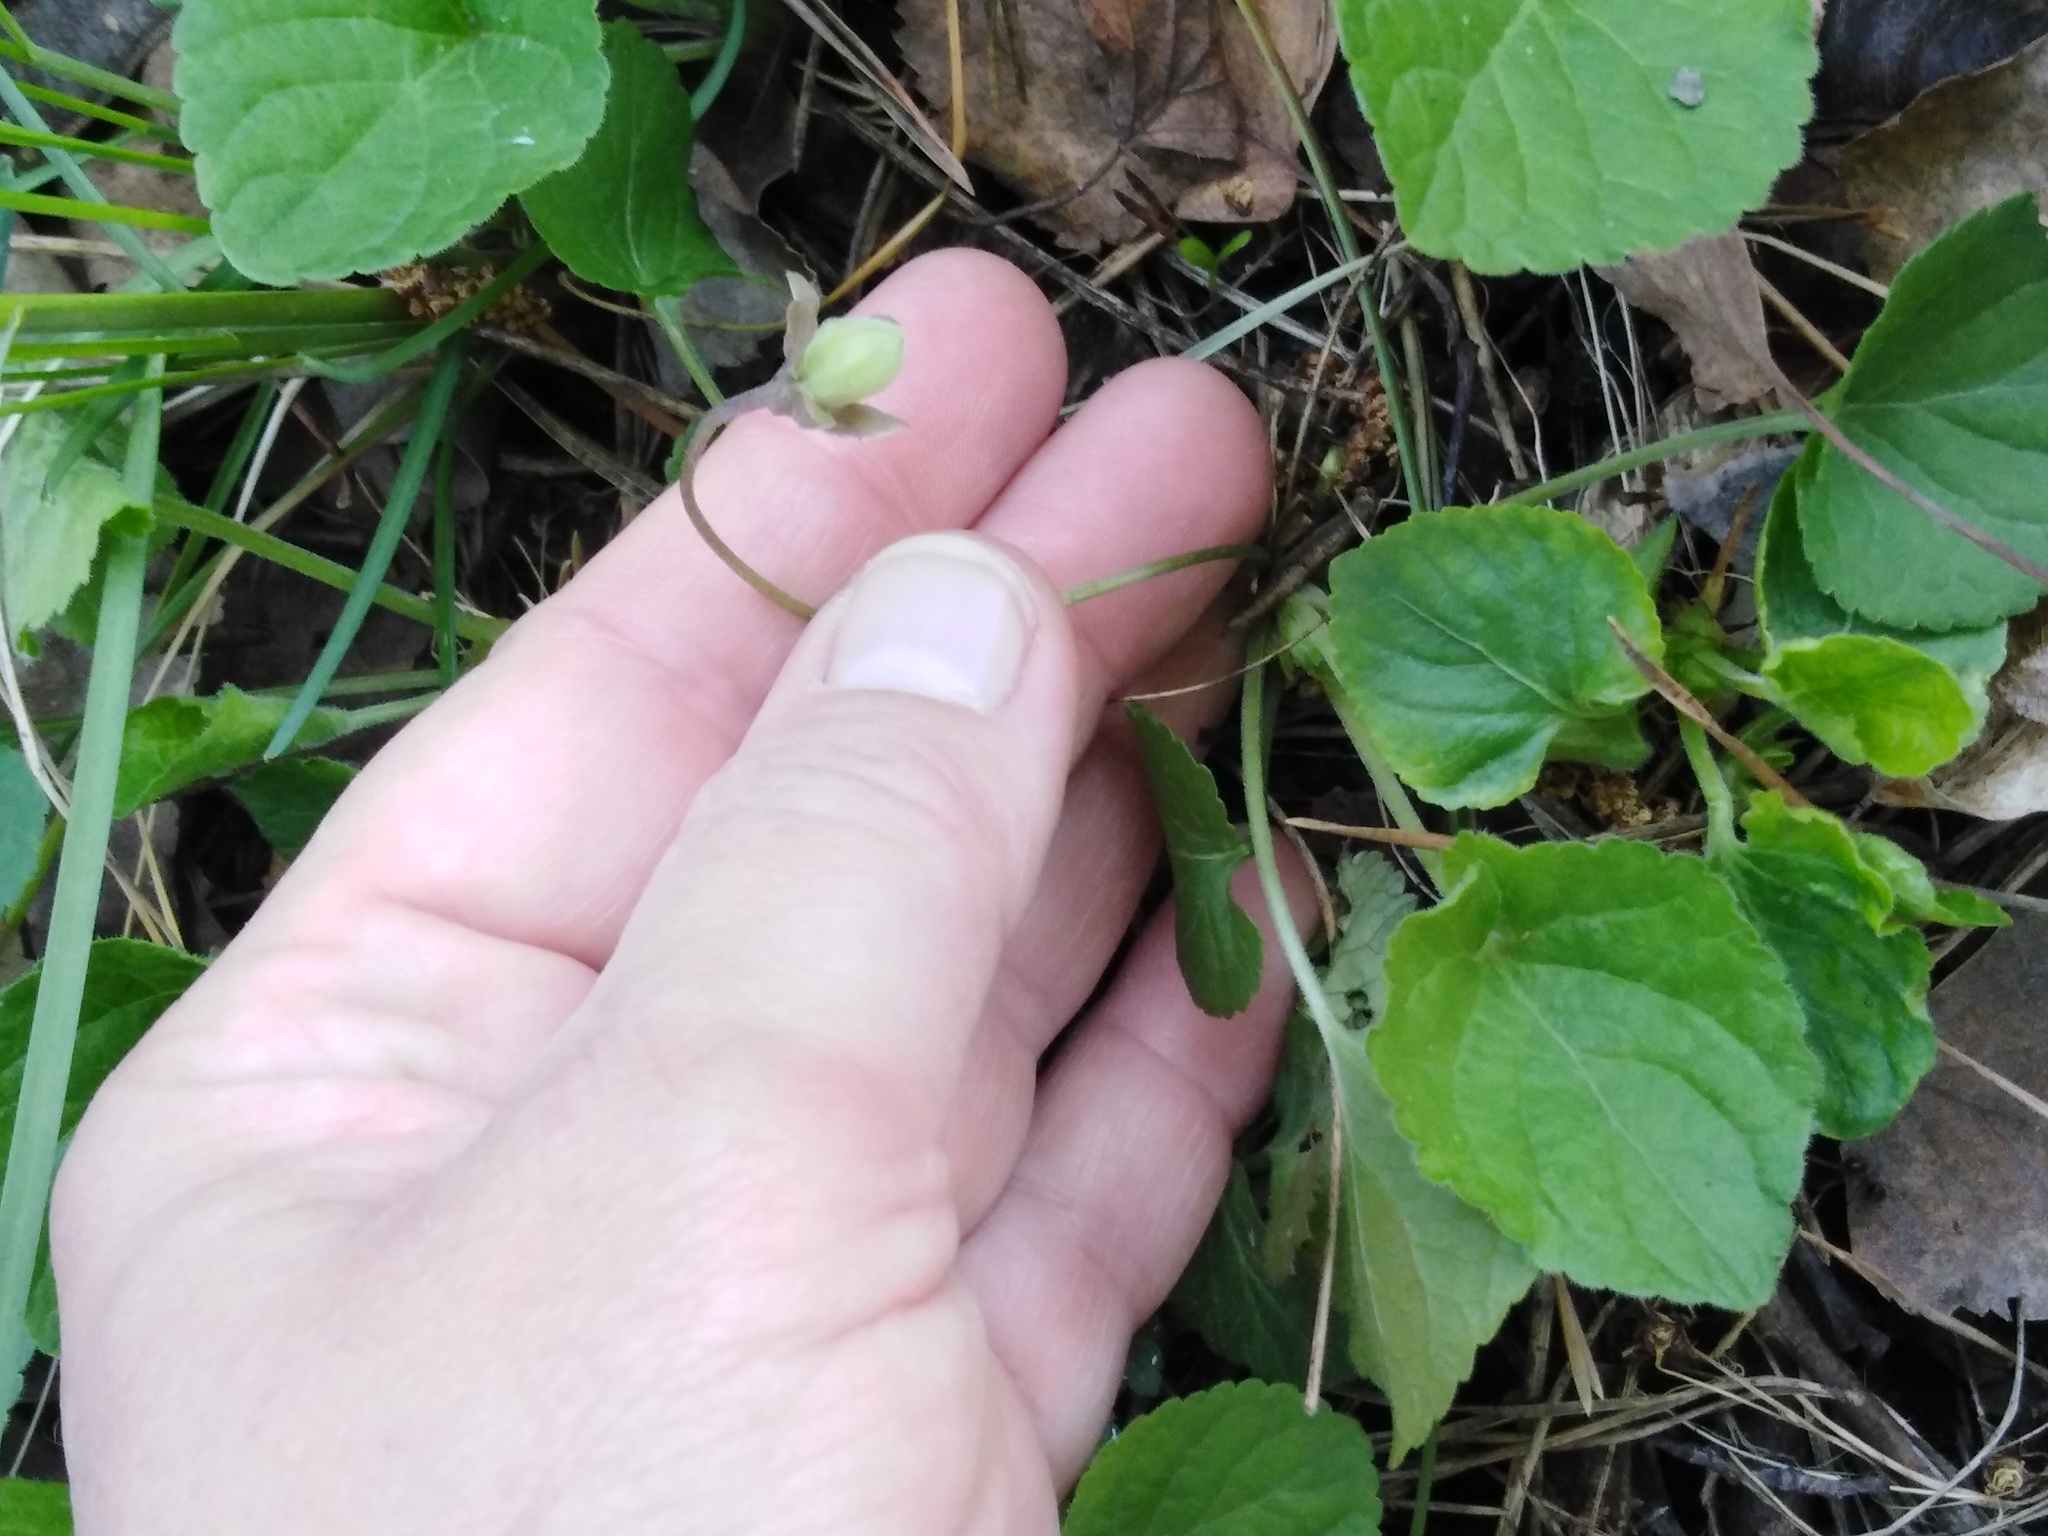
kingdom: Plantae
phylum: Tracheophyta
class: Magnoliopsida
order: Malpighiales
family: Violaceae
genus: Viola
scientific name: Viola odorata
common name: Sweet violet
